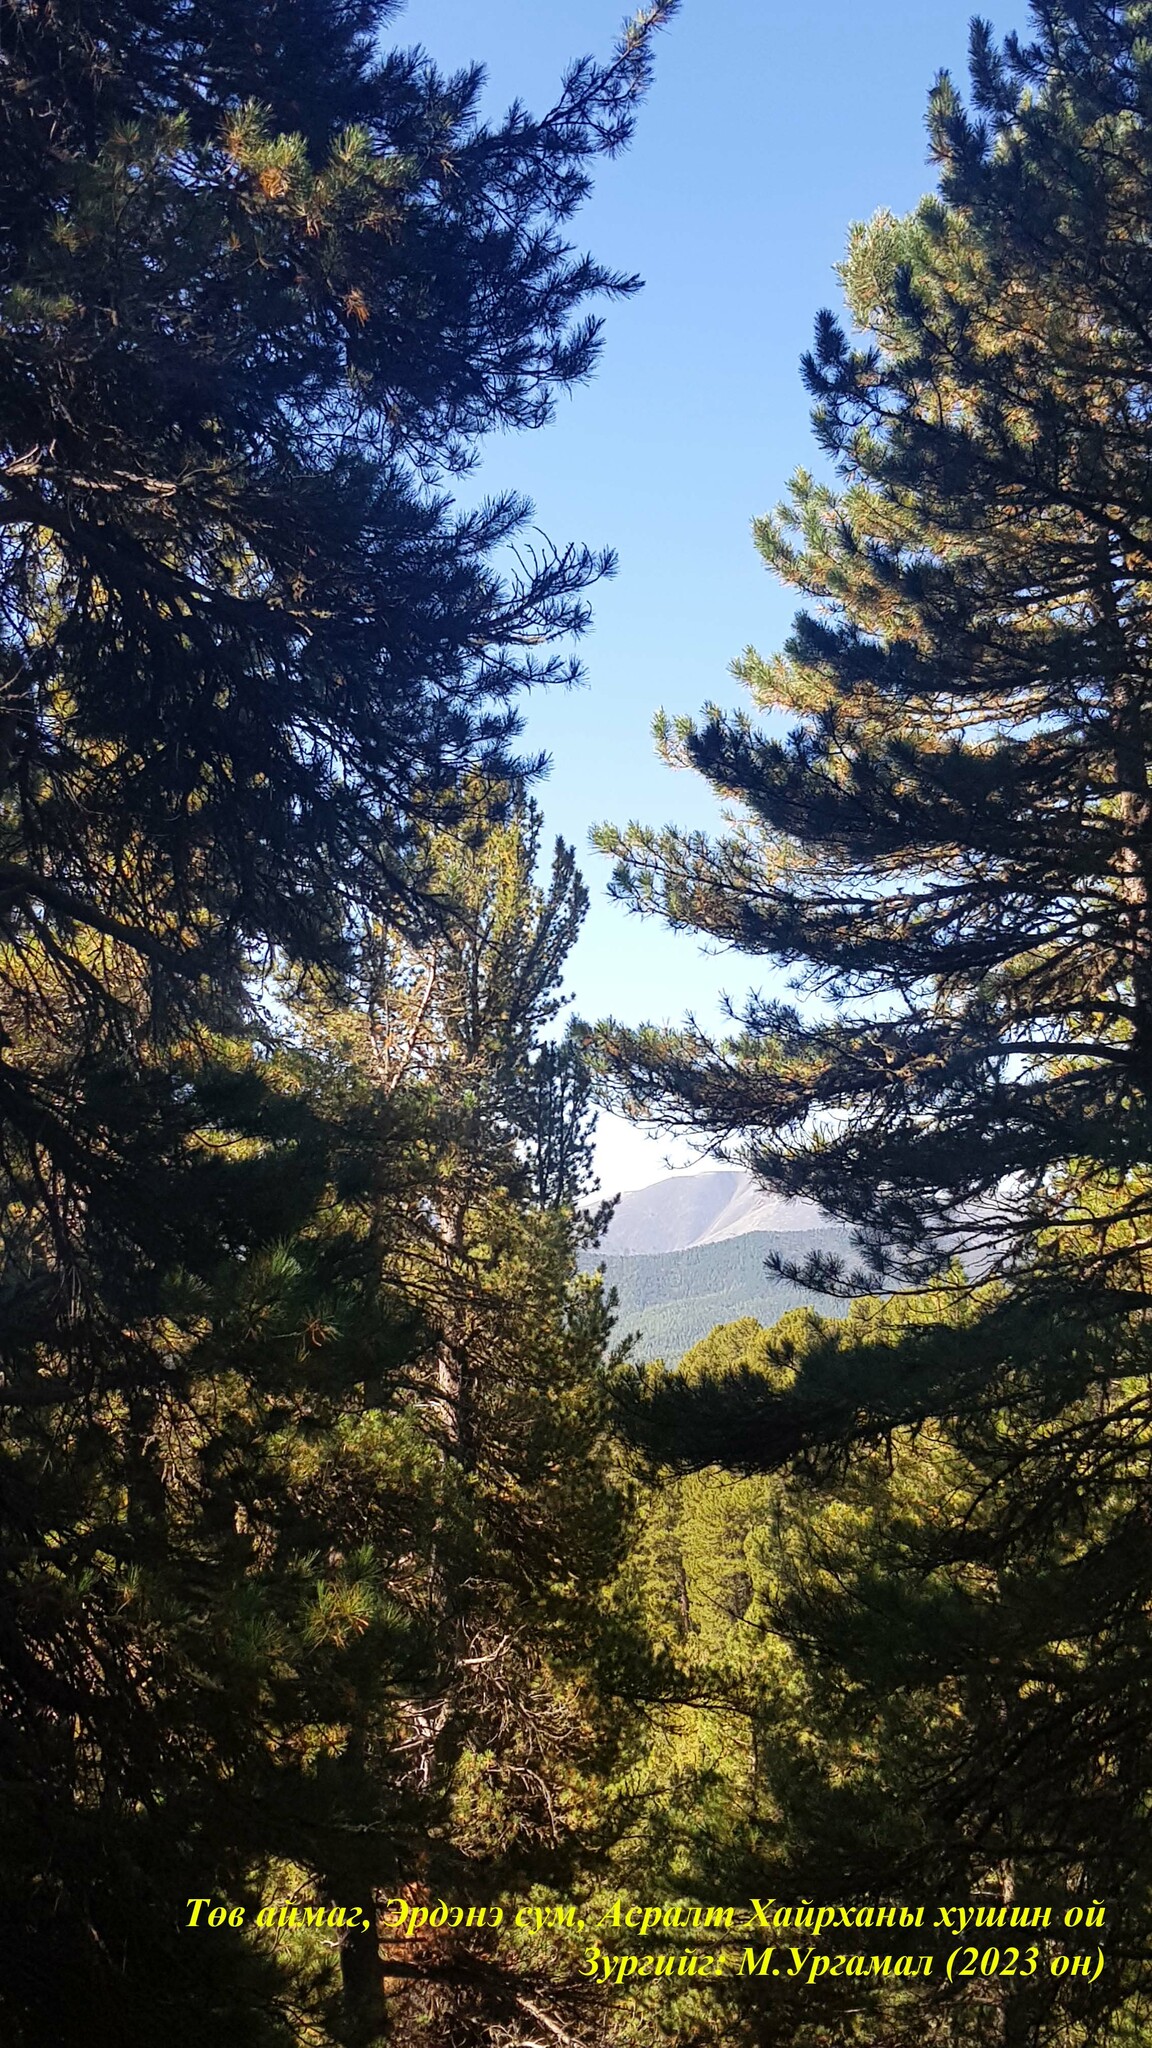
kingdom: Plantae
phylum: Tracheophyta
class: Pinopsida
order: Pinales
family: Pinaceae
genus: Pinus
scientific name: Pinus sibirica
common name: Siberian pine
